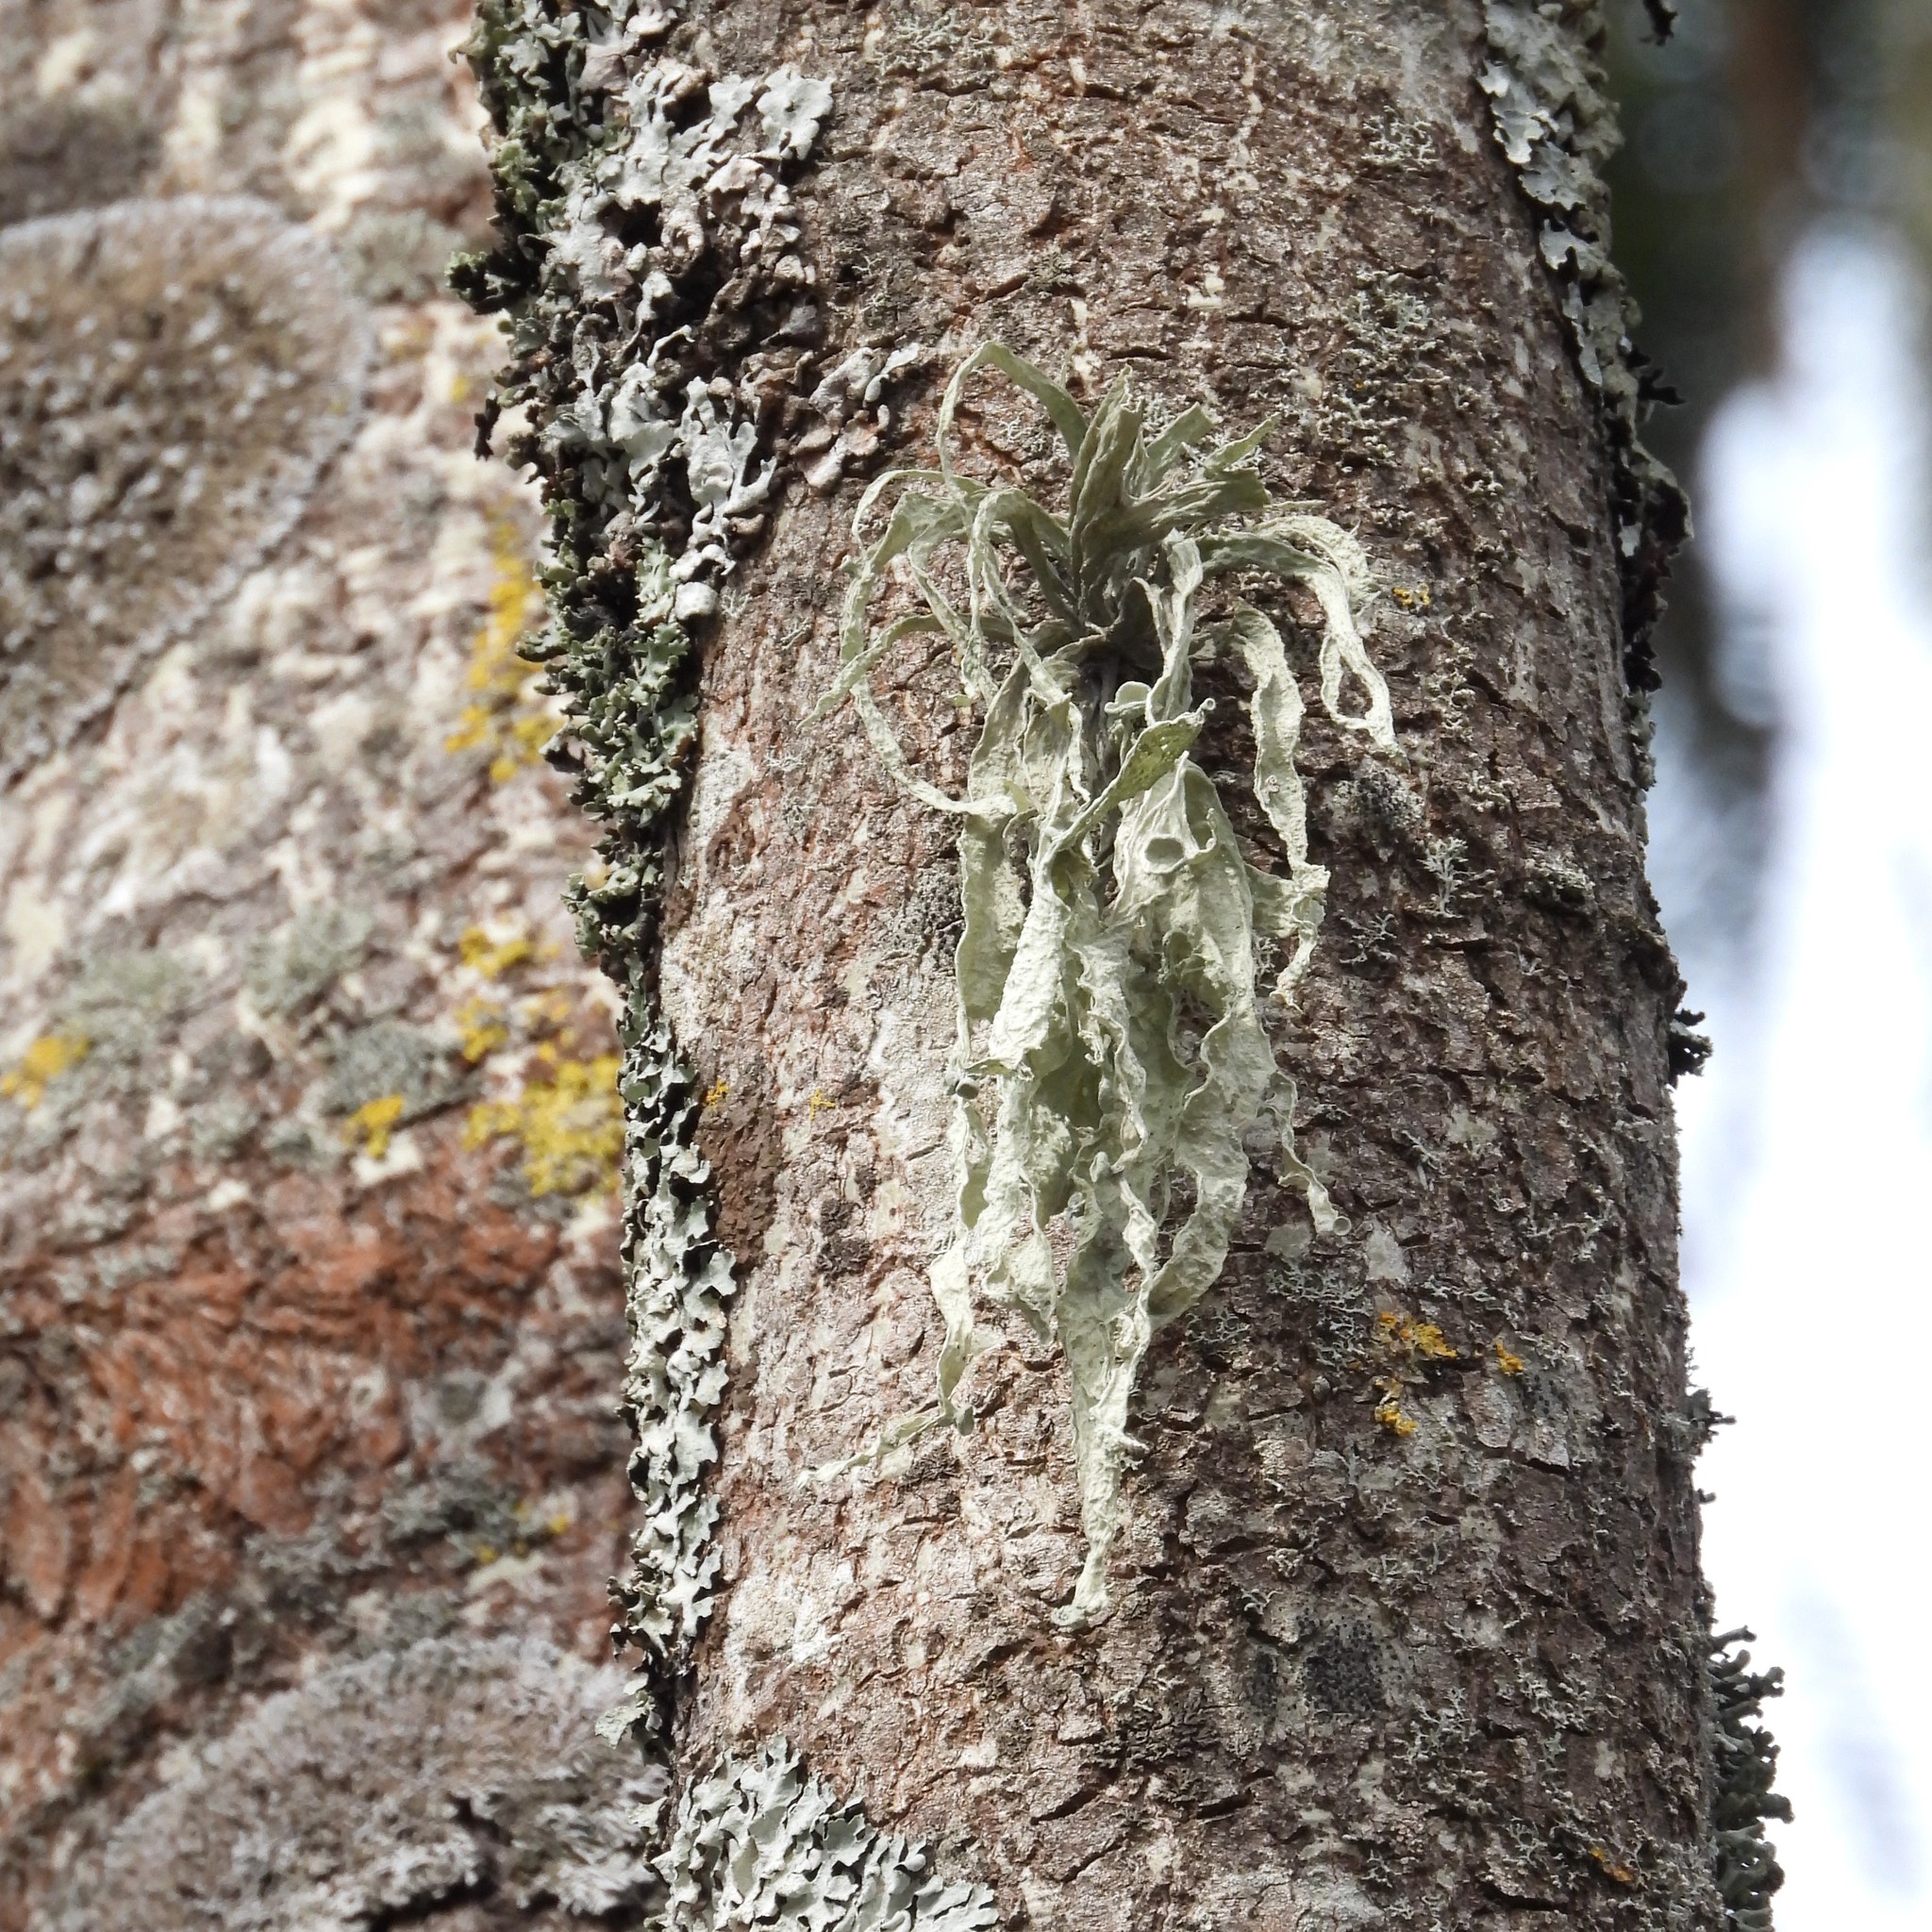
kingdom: Fungi
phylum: Ascomycota
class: Lecanoromycetes
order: Lecanorales
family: Ramalinaceae
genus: Ramalina
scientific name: Ramalina fraxinea
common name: Cartilage lichen
